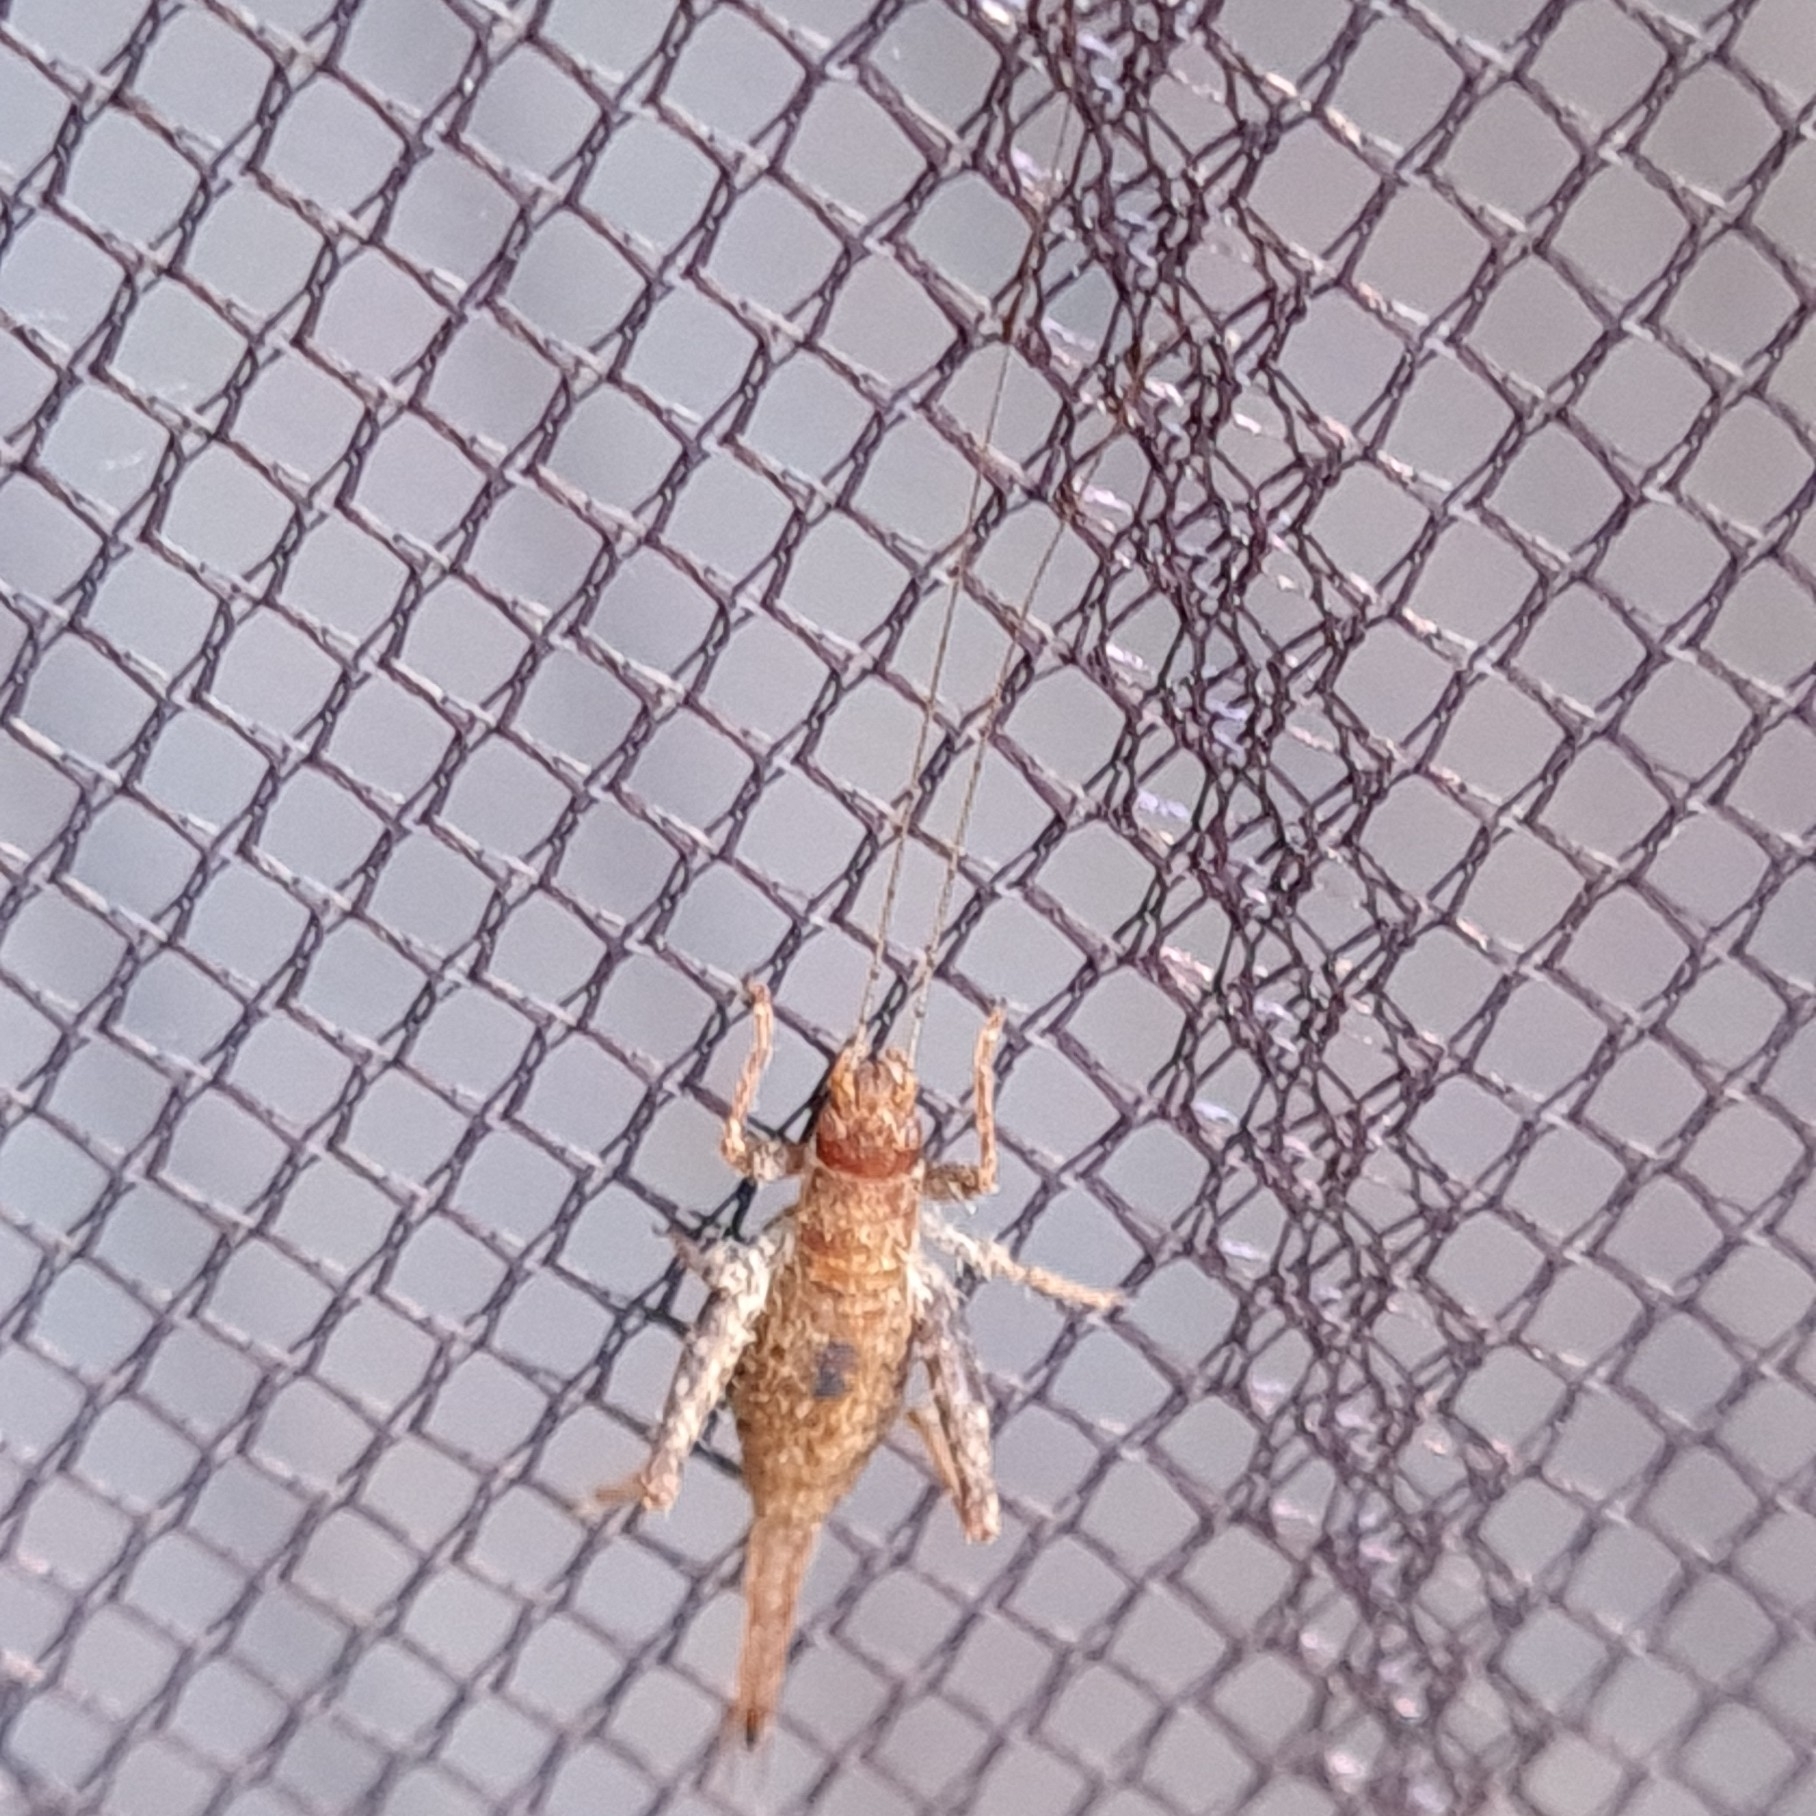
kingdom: Animalia
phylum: Arthropoda
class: Insecta
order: Orthoptera
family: Mogoplistidae
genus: Arachnocephalus
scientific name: Arachnocephalus vestitus
